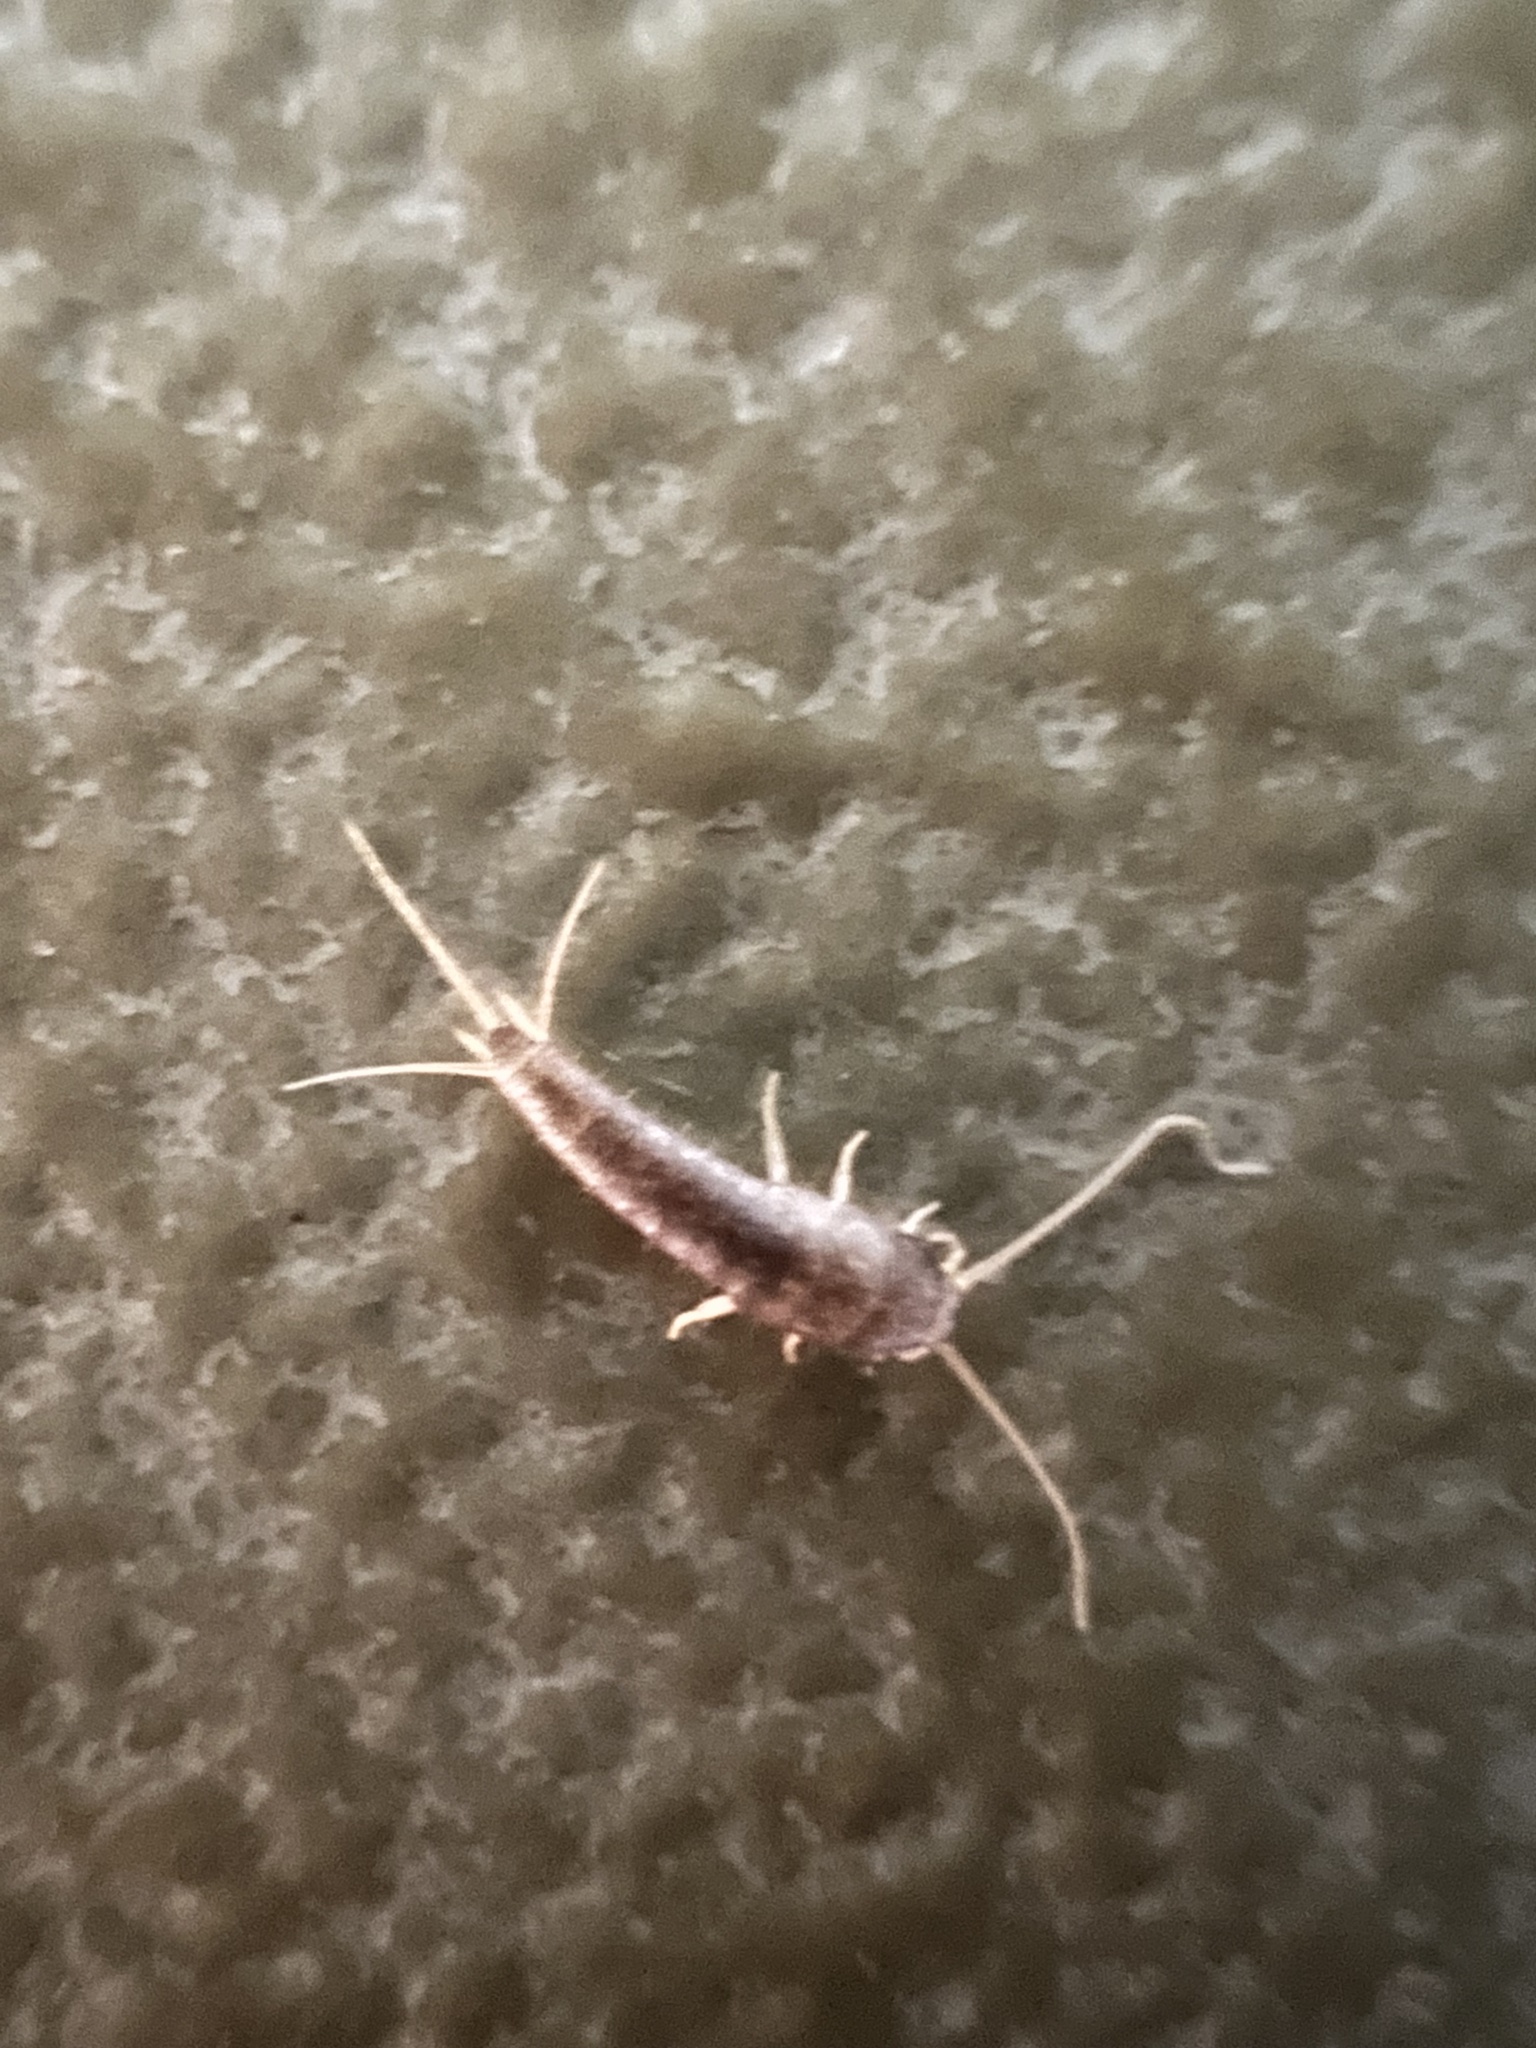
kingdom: Animalia
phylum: Arthropoda
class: Insecta
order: Zygentoma
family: Lepismatidae
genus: Lepisma
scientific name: Lepisma saccharinum
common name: Silverfish
